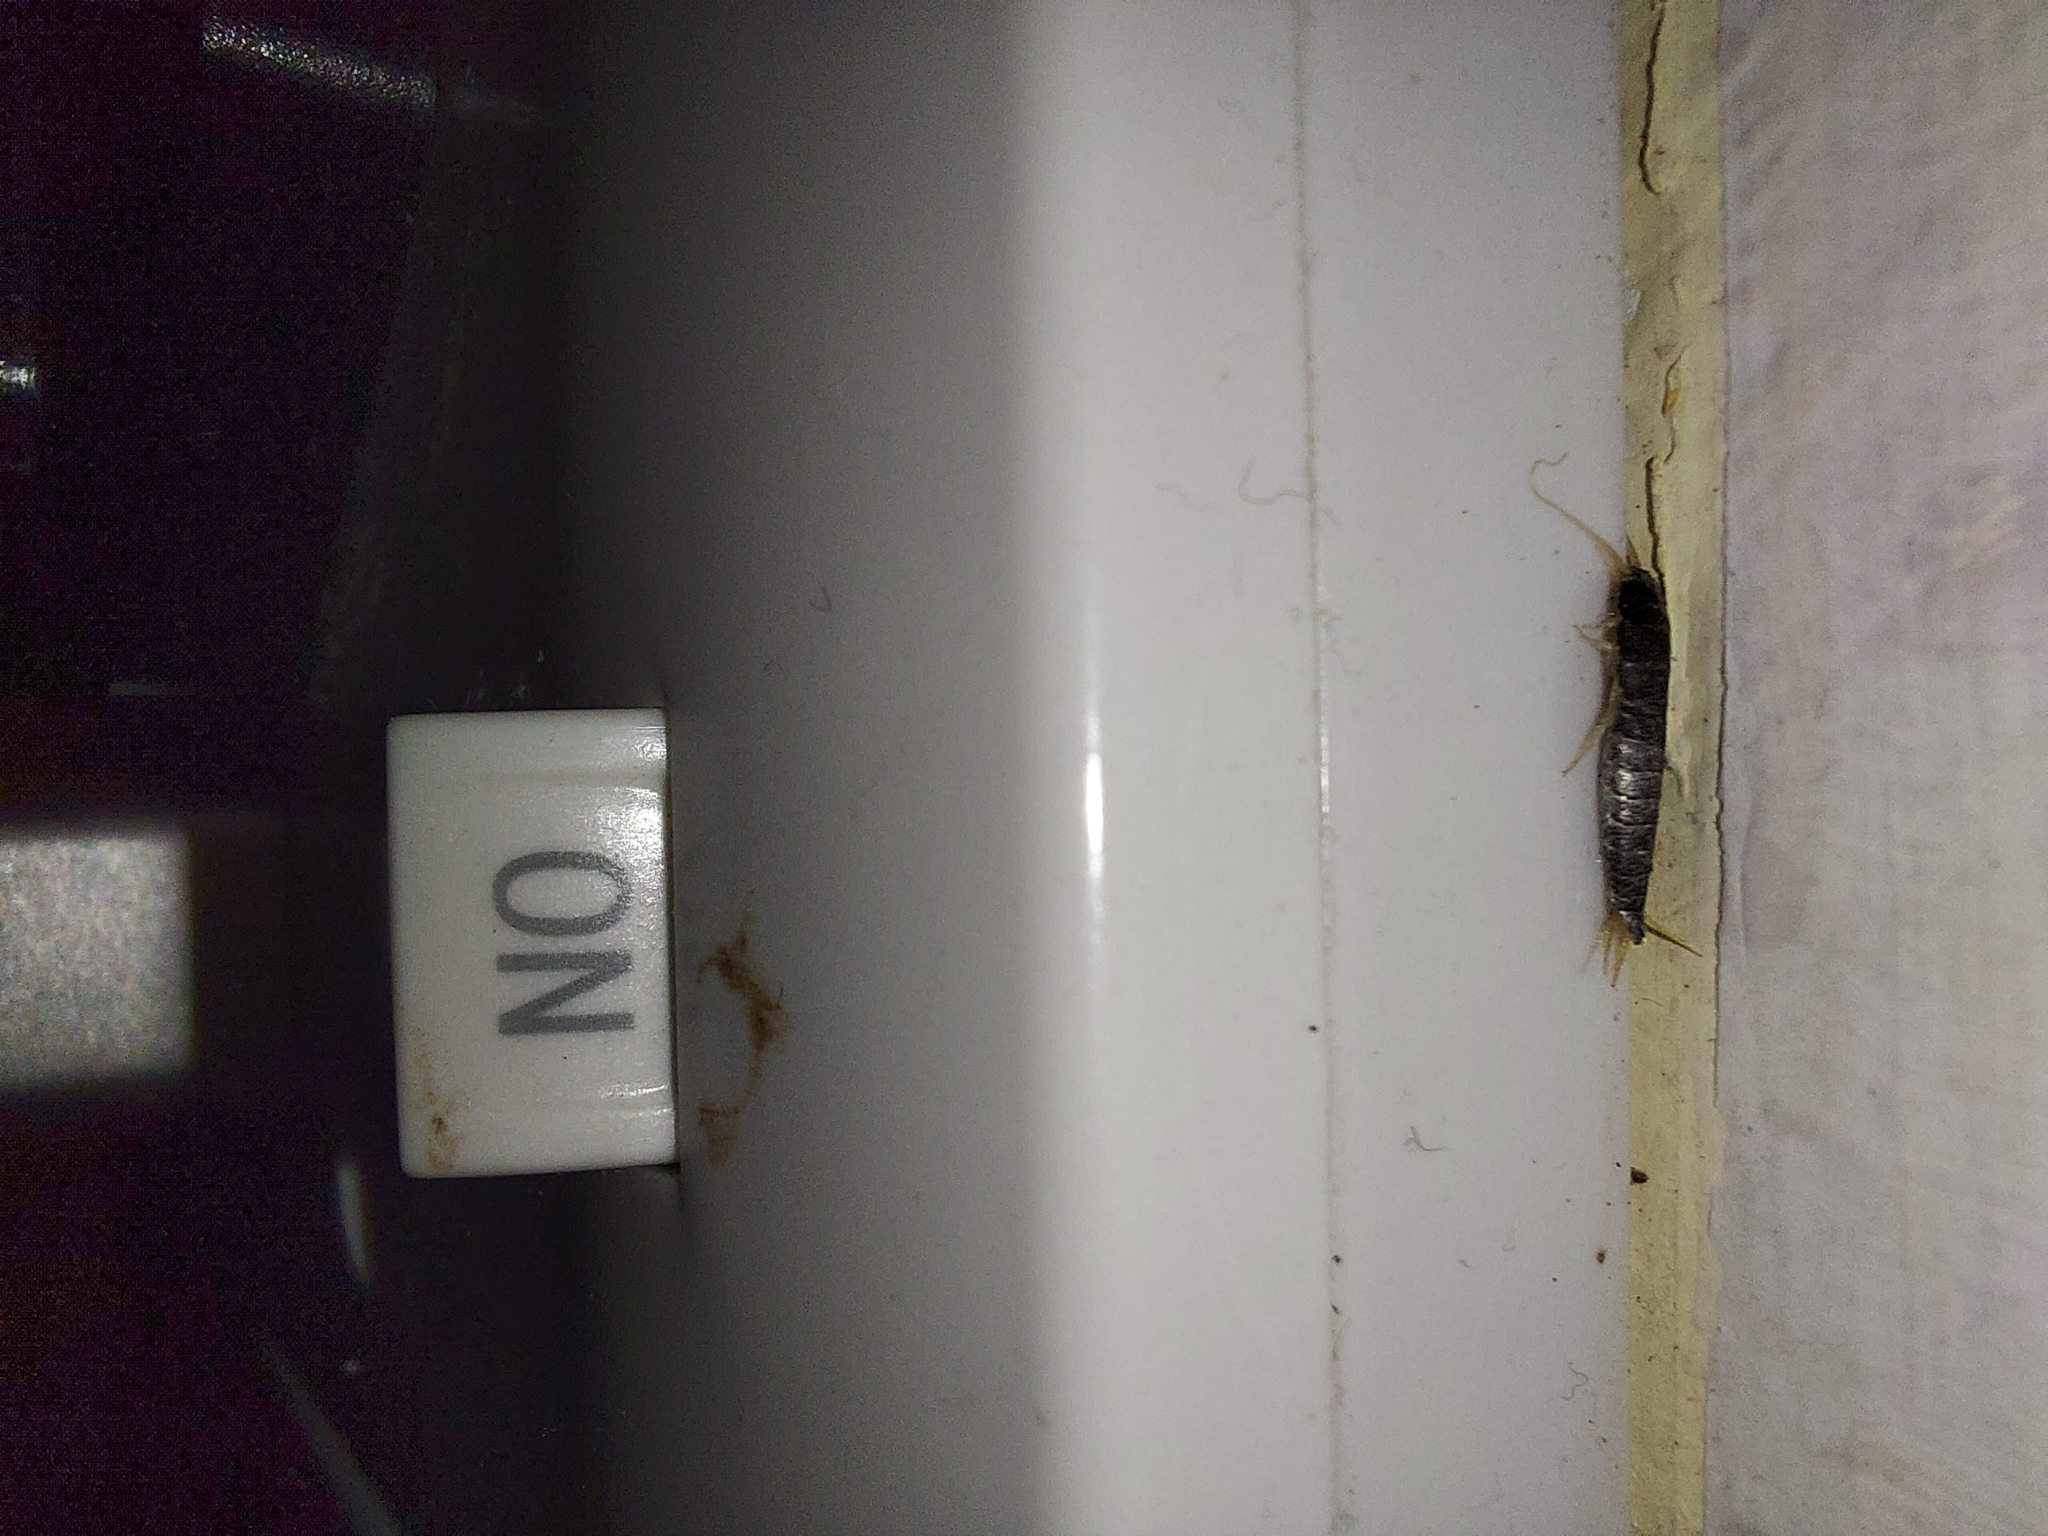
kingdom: Animalia
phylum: Arthropoda
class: Insecta
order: Zygentoma
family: Lepismatidae
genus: Lepisma
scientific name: Lepisma saccharinum
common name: Silverfish
